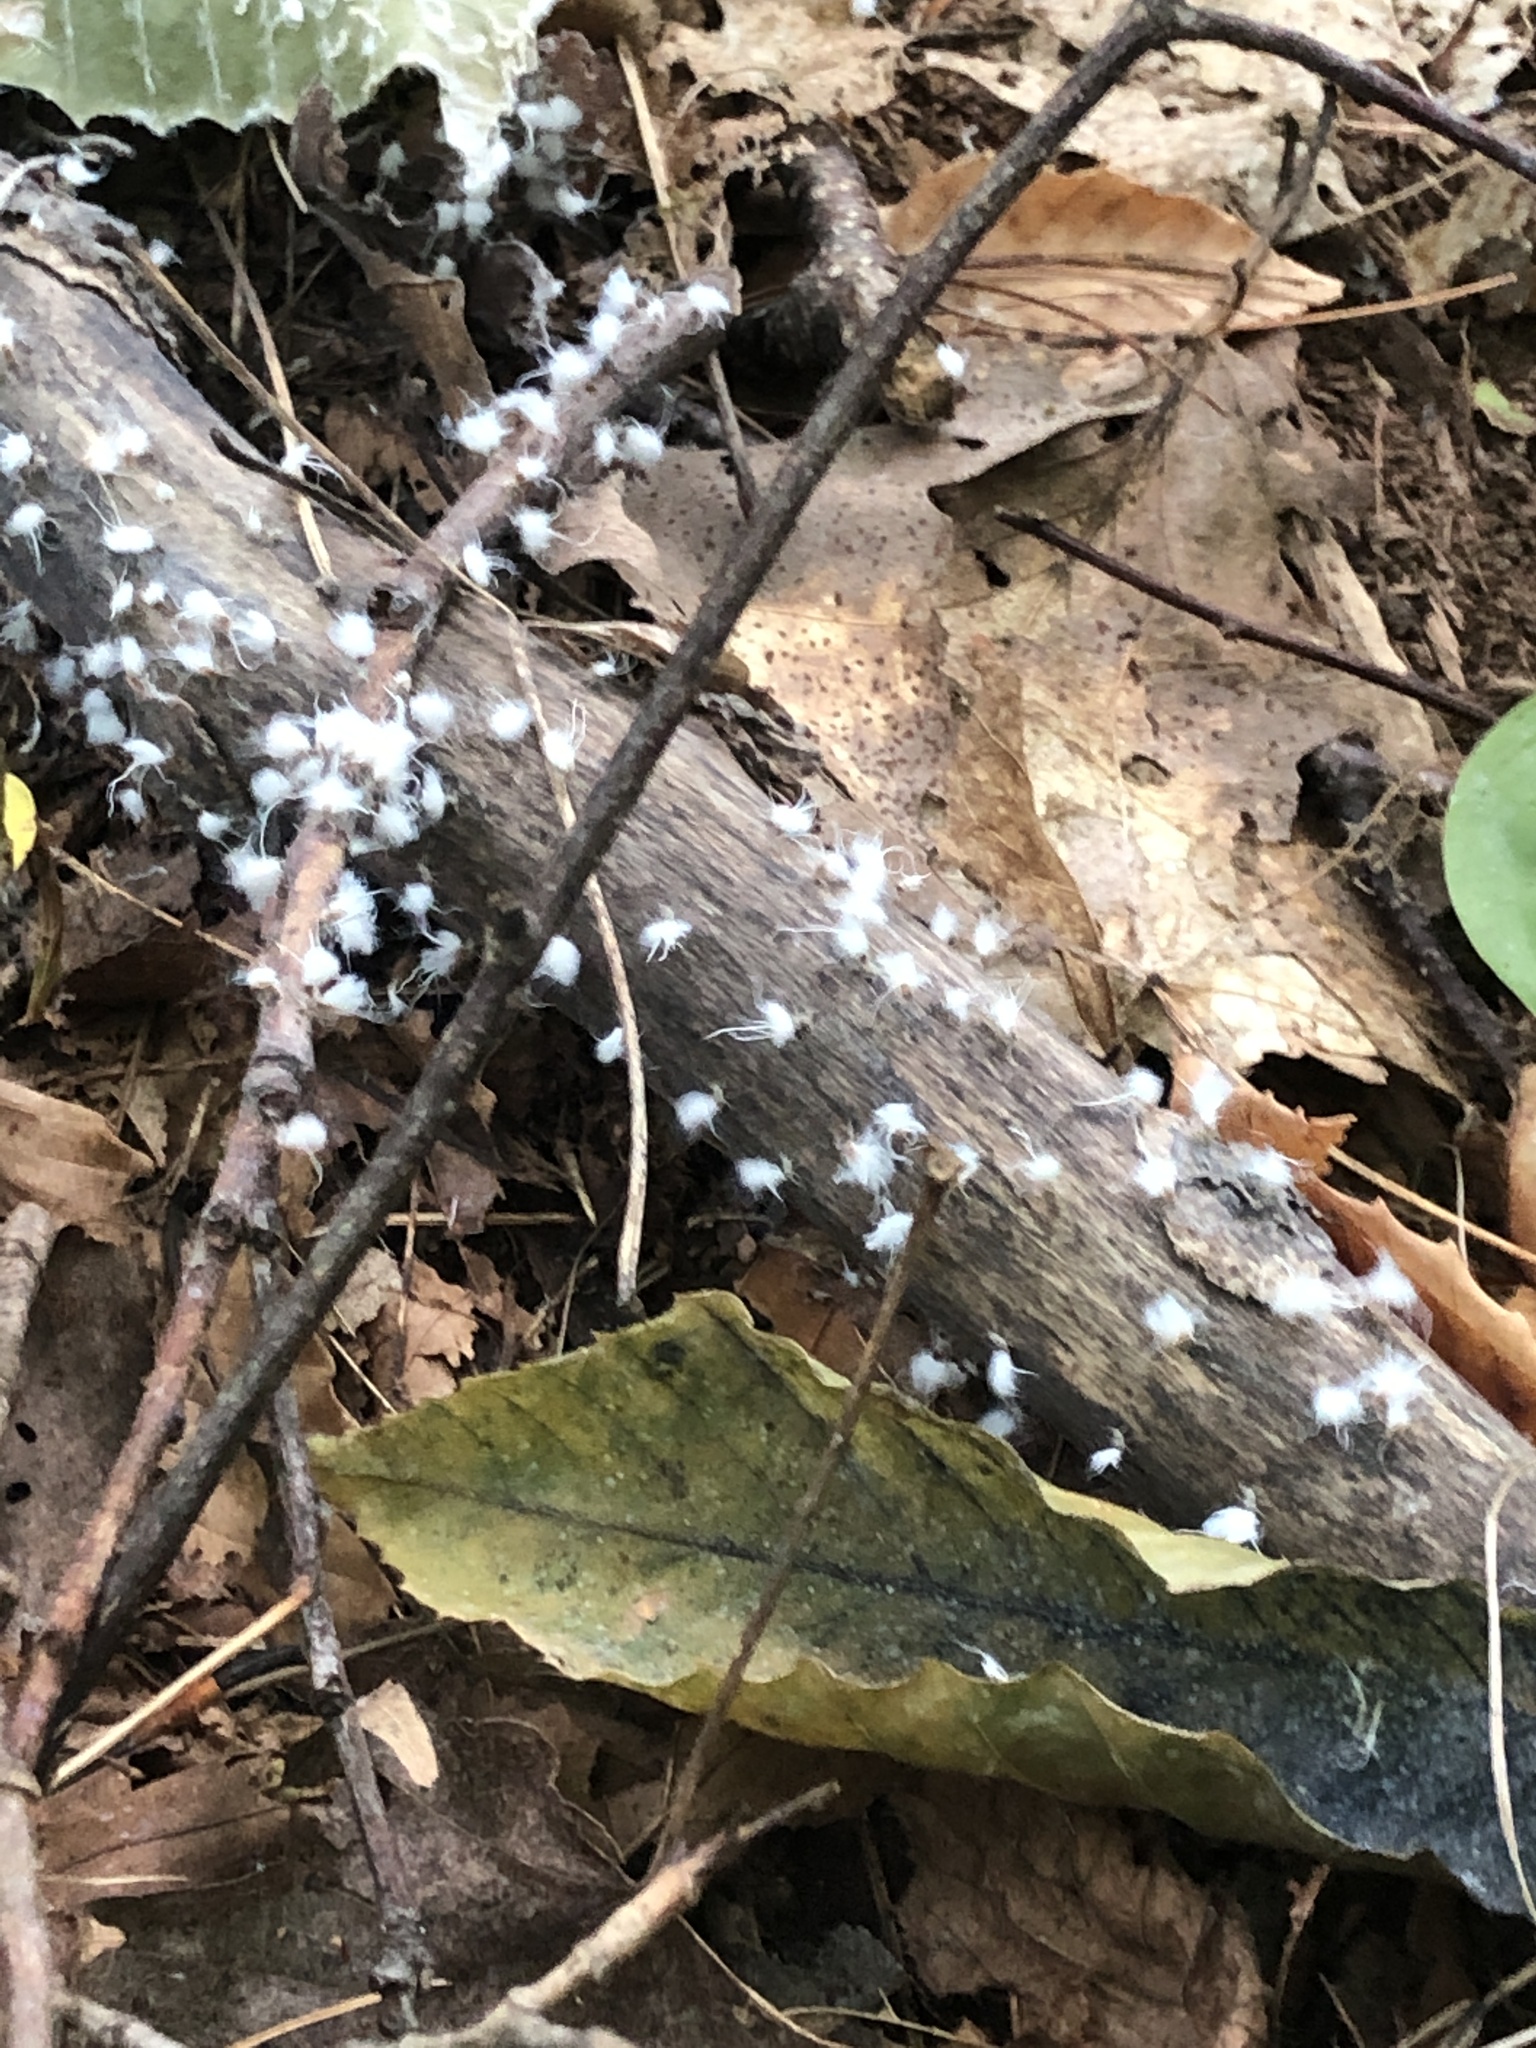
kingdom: Animalia
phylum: Arthropoda
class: Insecta
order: Hemiptera
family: Aphididae
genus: Grylloprociphilus
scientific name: Grylloprociphilus imbricator
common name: Beech blight aphid
